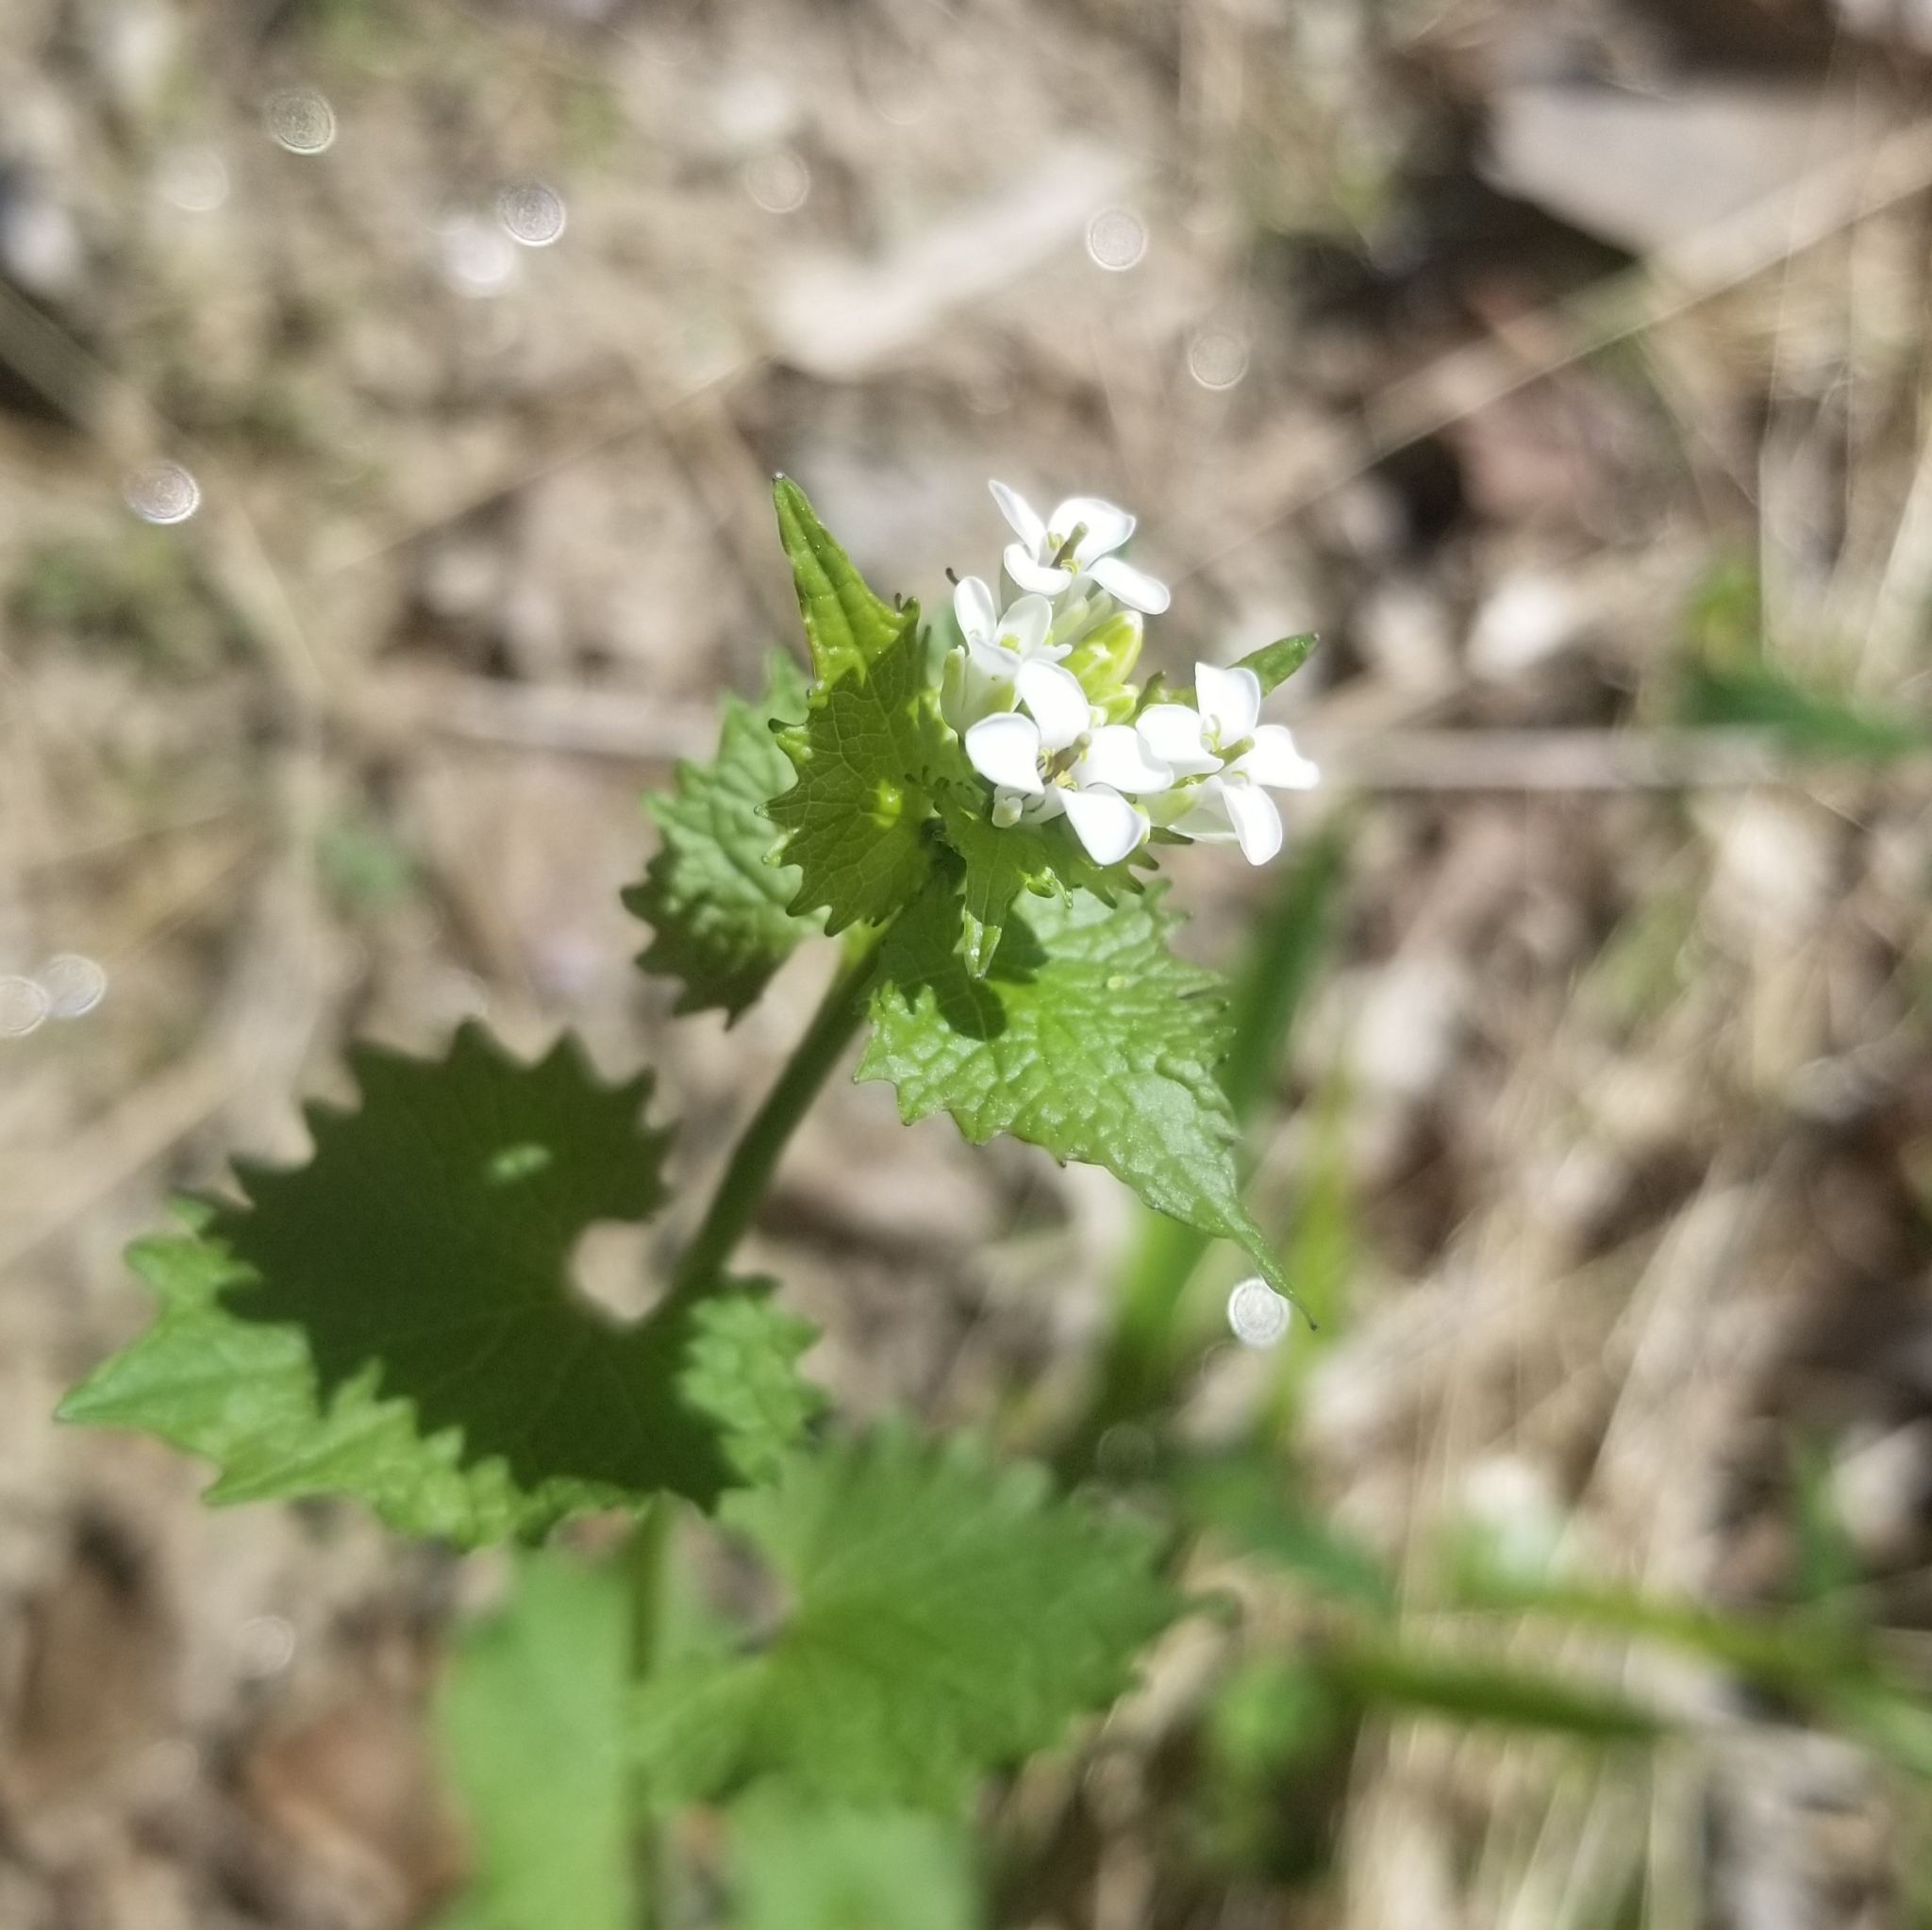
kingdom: Plantae
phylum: Tracheophyta
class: Magnoliopsida
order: Brassicales
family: Brassicaceae
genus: Alliaria
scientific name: Alliaria petiolata
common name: Garlic mustard
